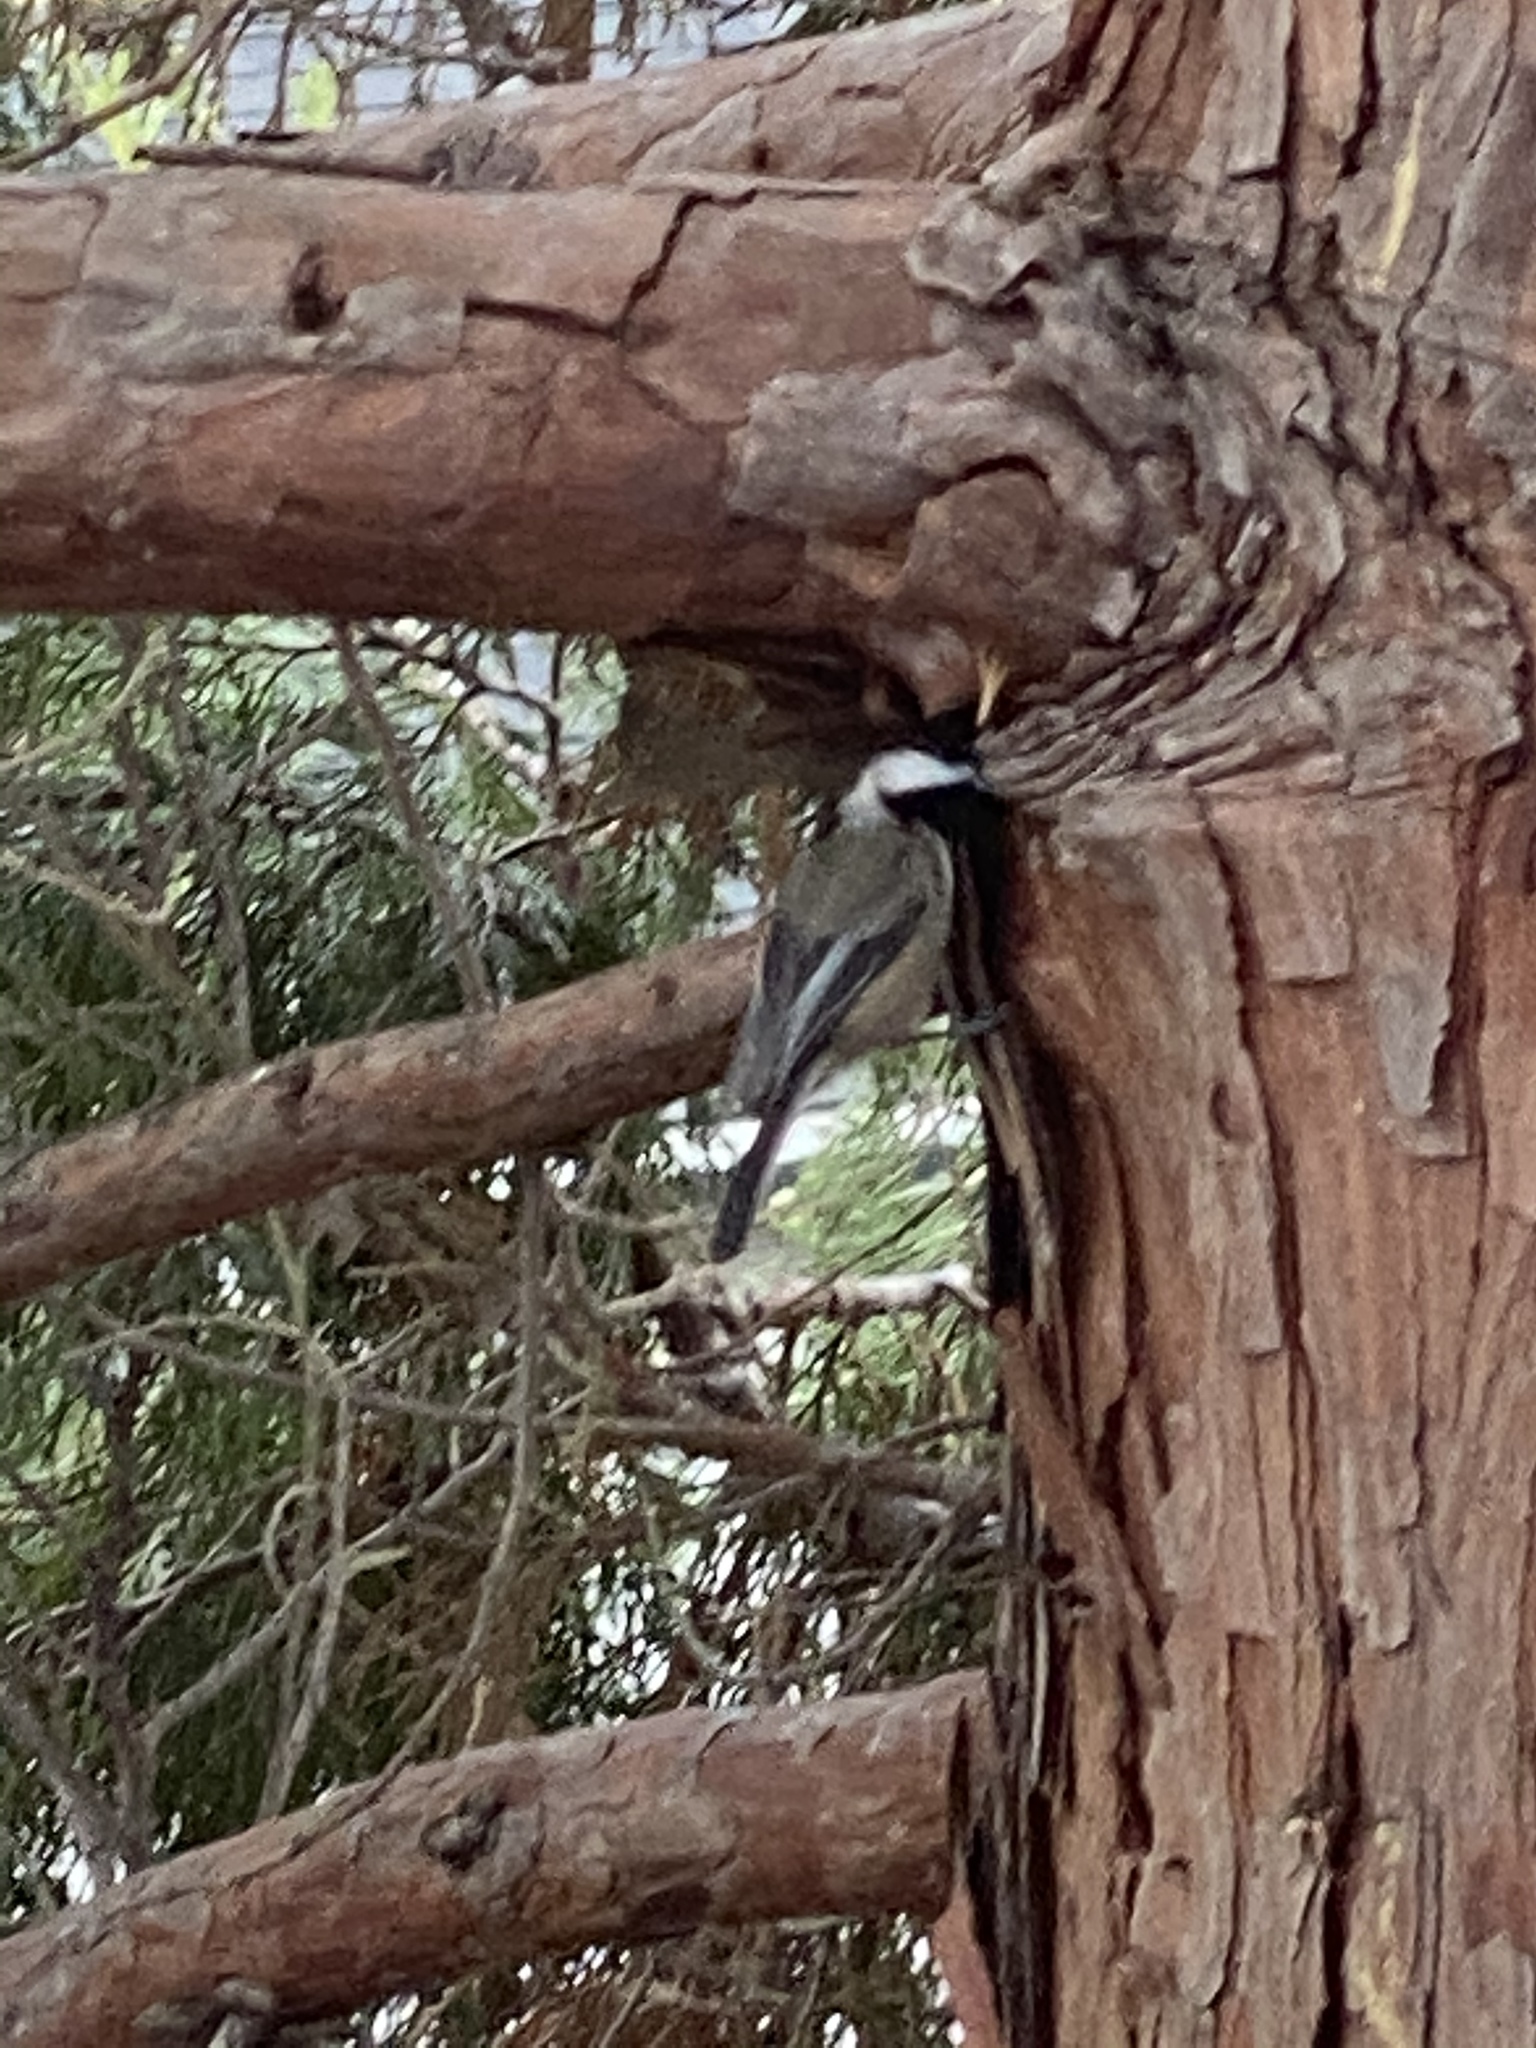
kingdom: Animalia
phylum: Chordata
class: Aves
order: Passeriformes
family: Paridae
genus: Poecile
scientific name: Poecile atricapillus
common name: Black-capped chickadee
